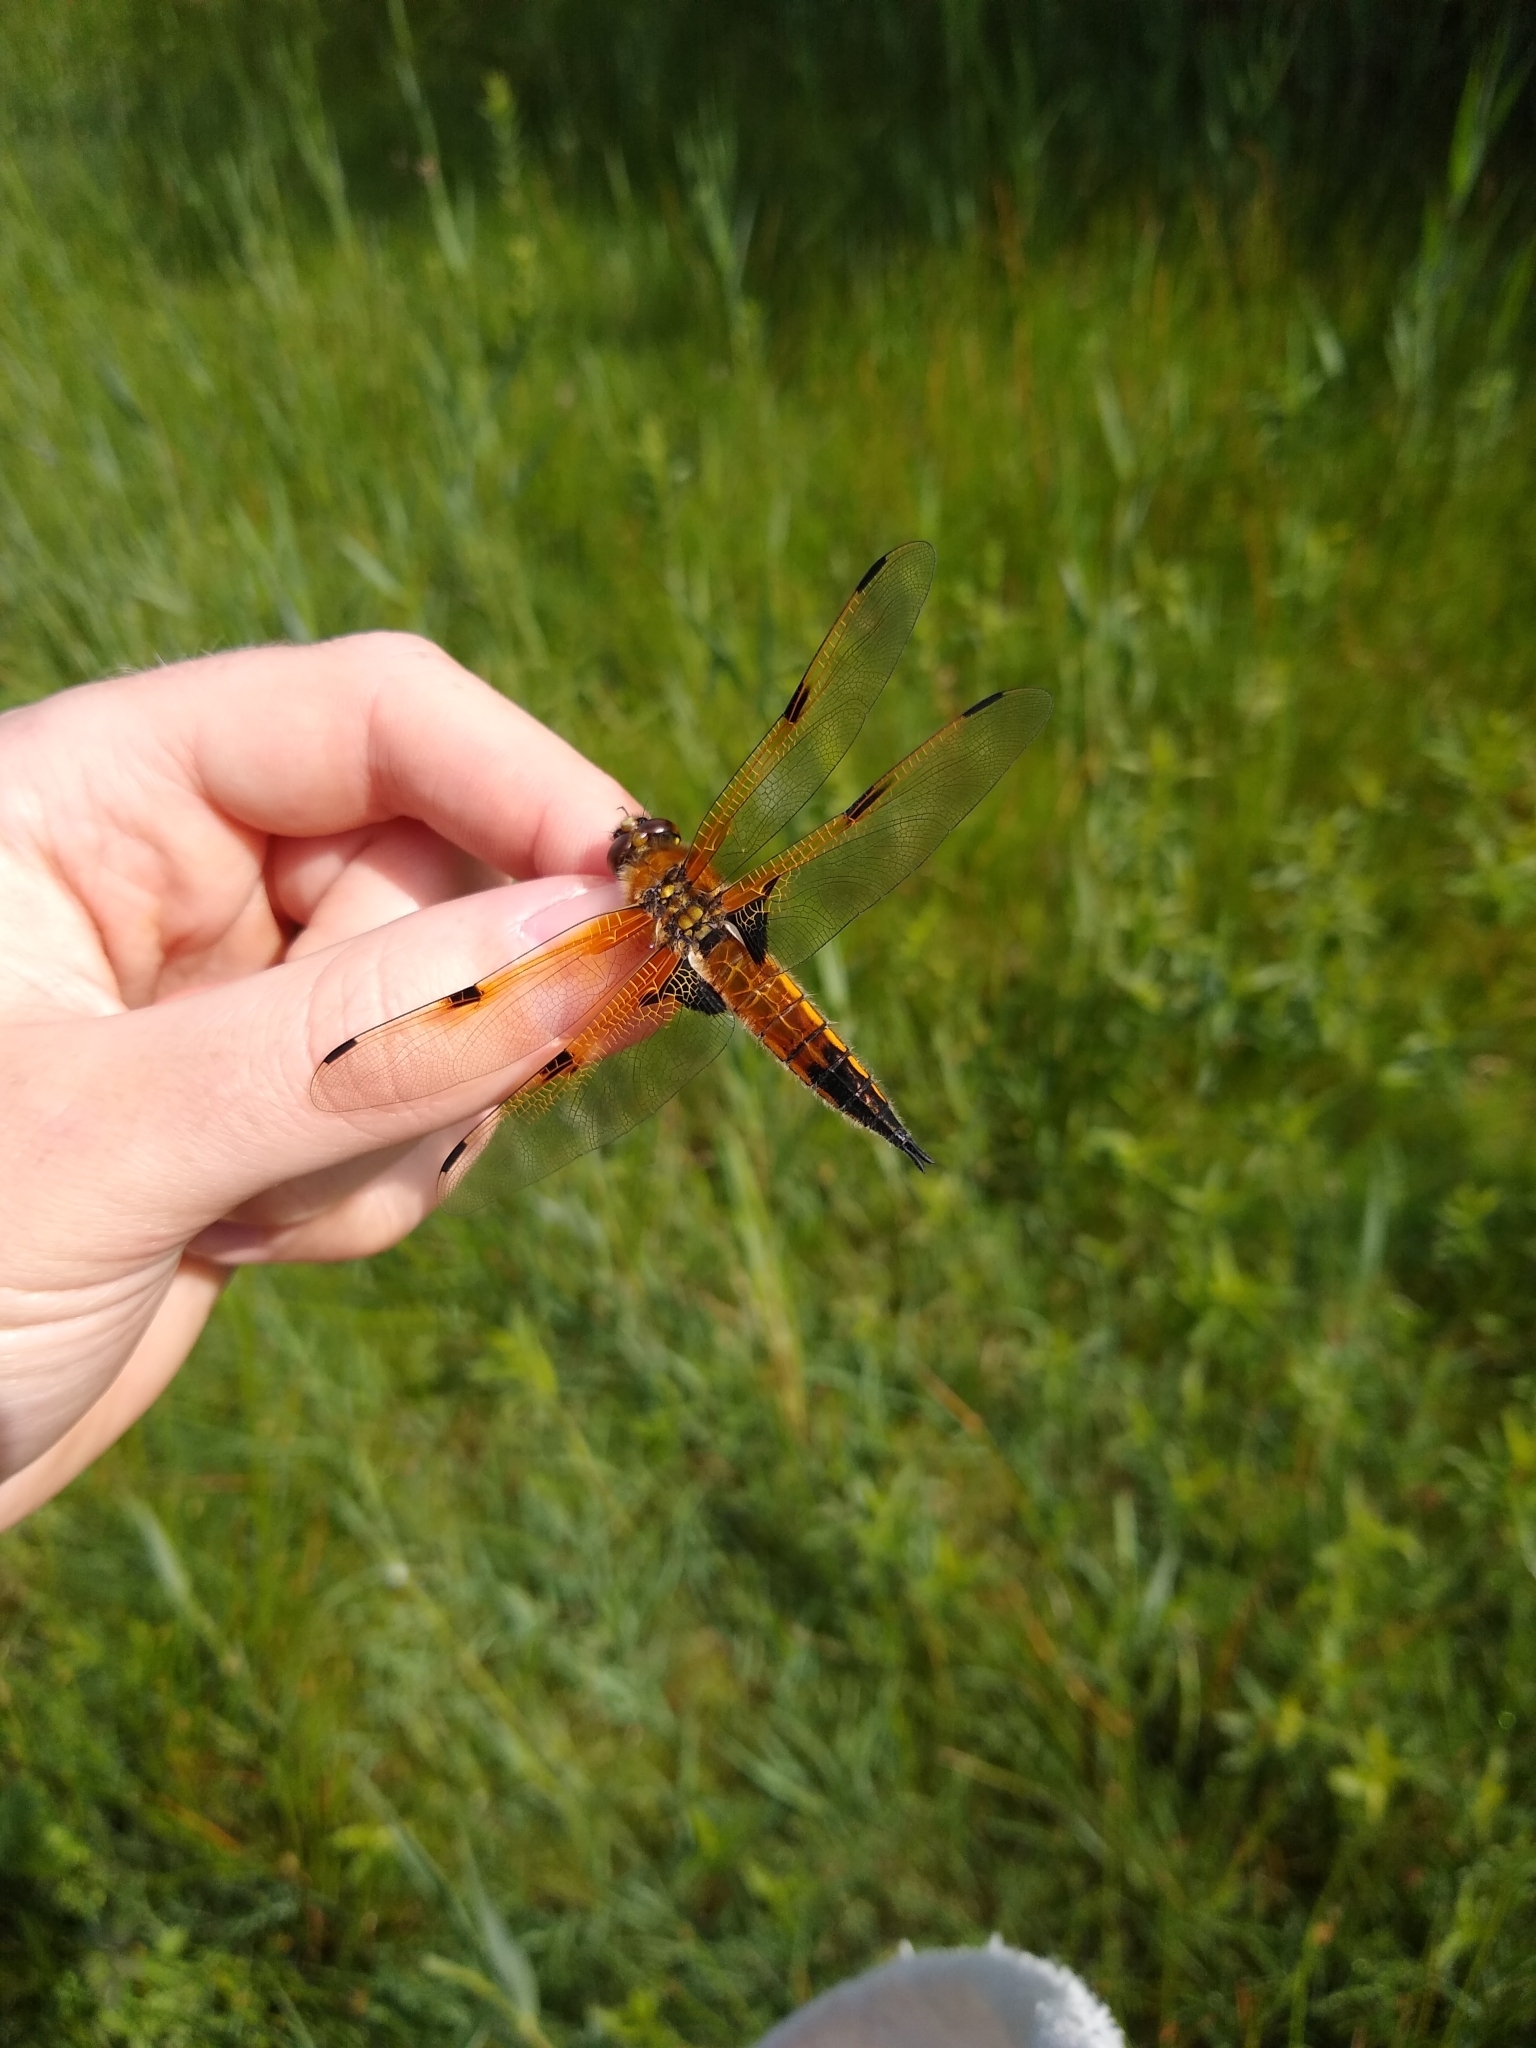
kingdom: Animalia
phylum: Arthropoda
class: Insecta
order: Odonata
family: Libellulidae
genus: Libellula
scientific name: Libellula quadrimaculata
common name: Four-spotted chaser
